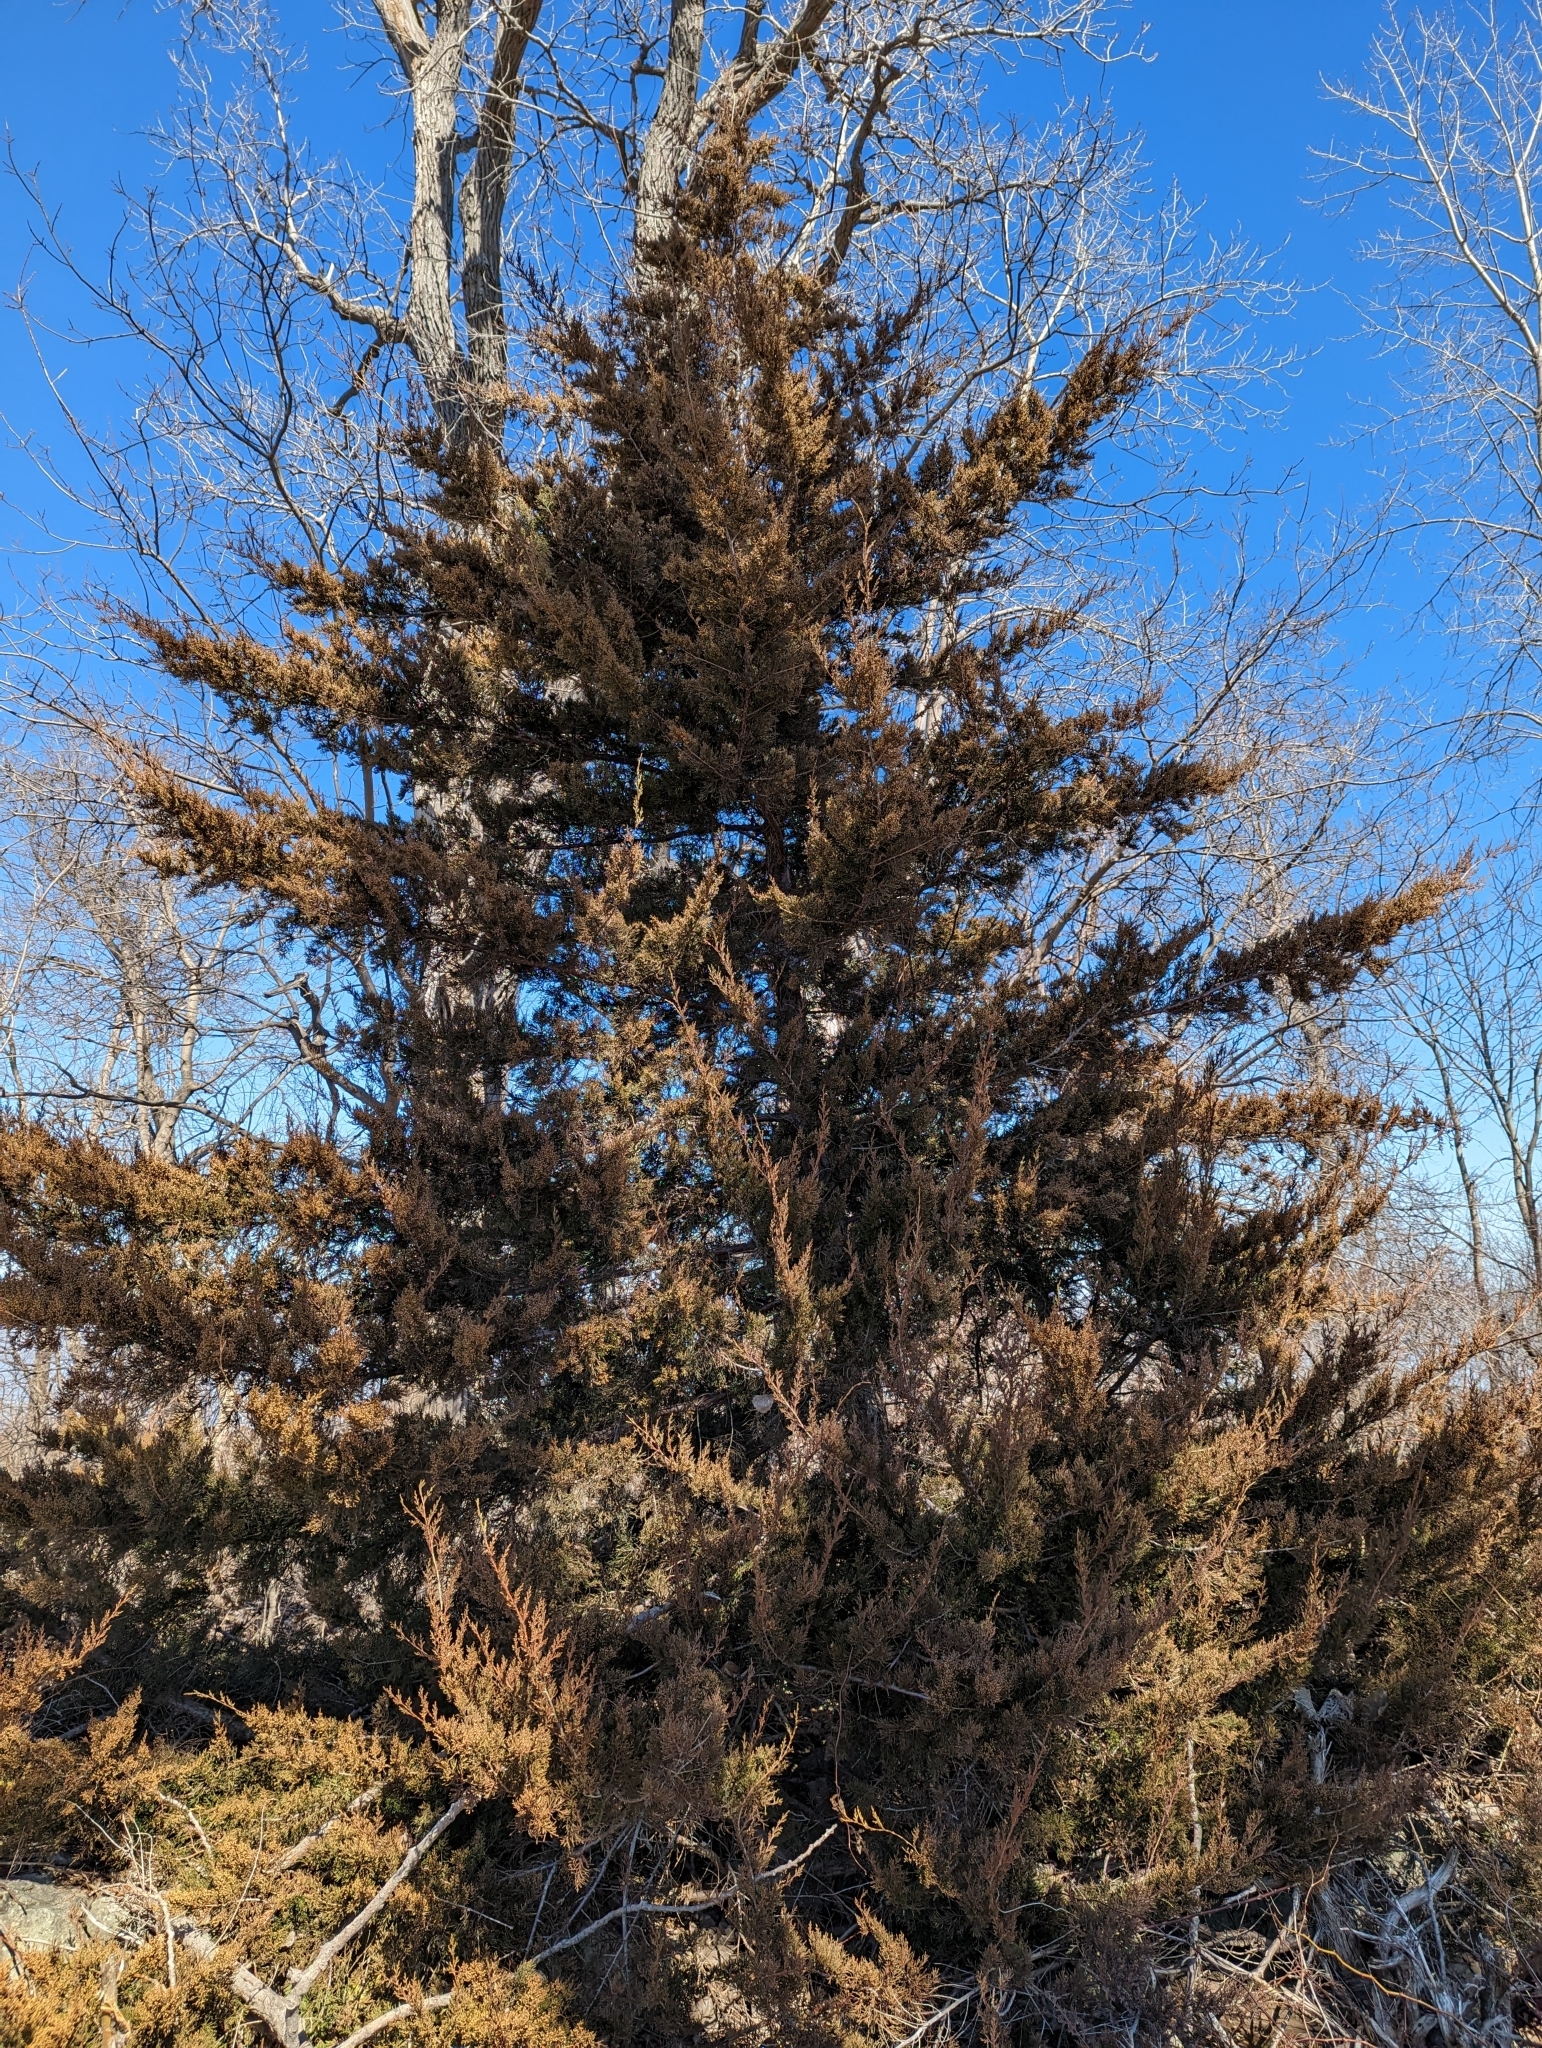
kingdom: Plantae
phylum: Tracheophyta
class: Pinopsida
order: Pinales
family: Cupressaceae
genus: Juniperus
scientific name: Juniperus virginiana
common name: Red juniper
